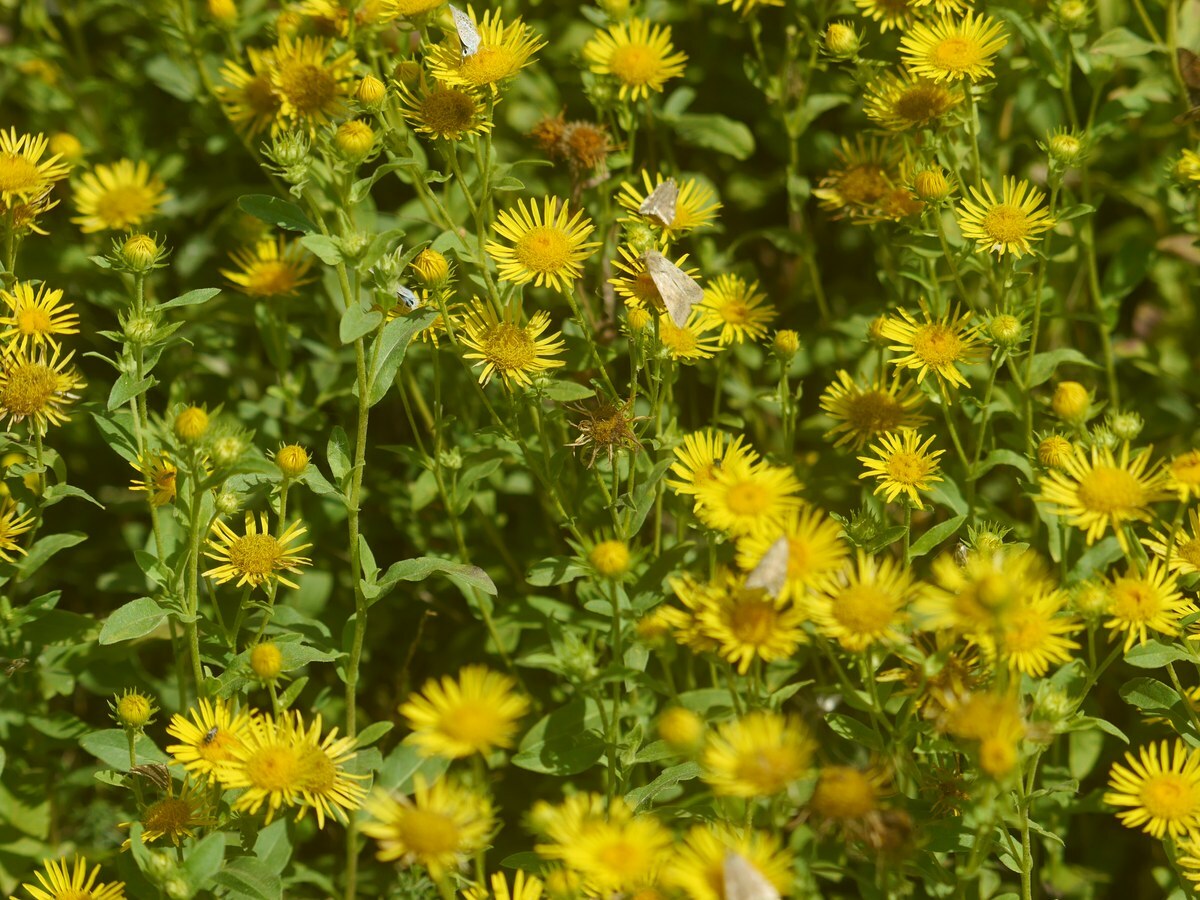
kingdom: Plantae
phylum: Tracheophyta
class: Magnoliopsida
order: Asterales
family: Asteraceae
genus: Pentanema
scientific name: Pentanema britannicum
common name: British elecampane
